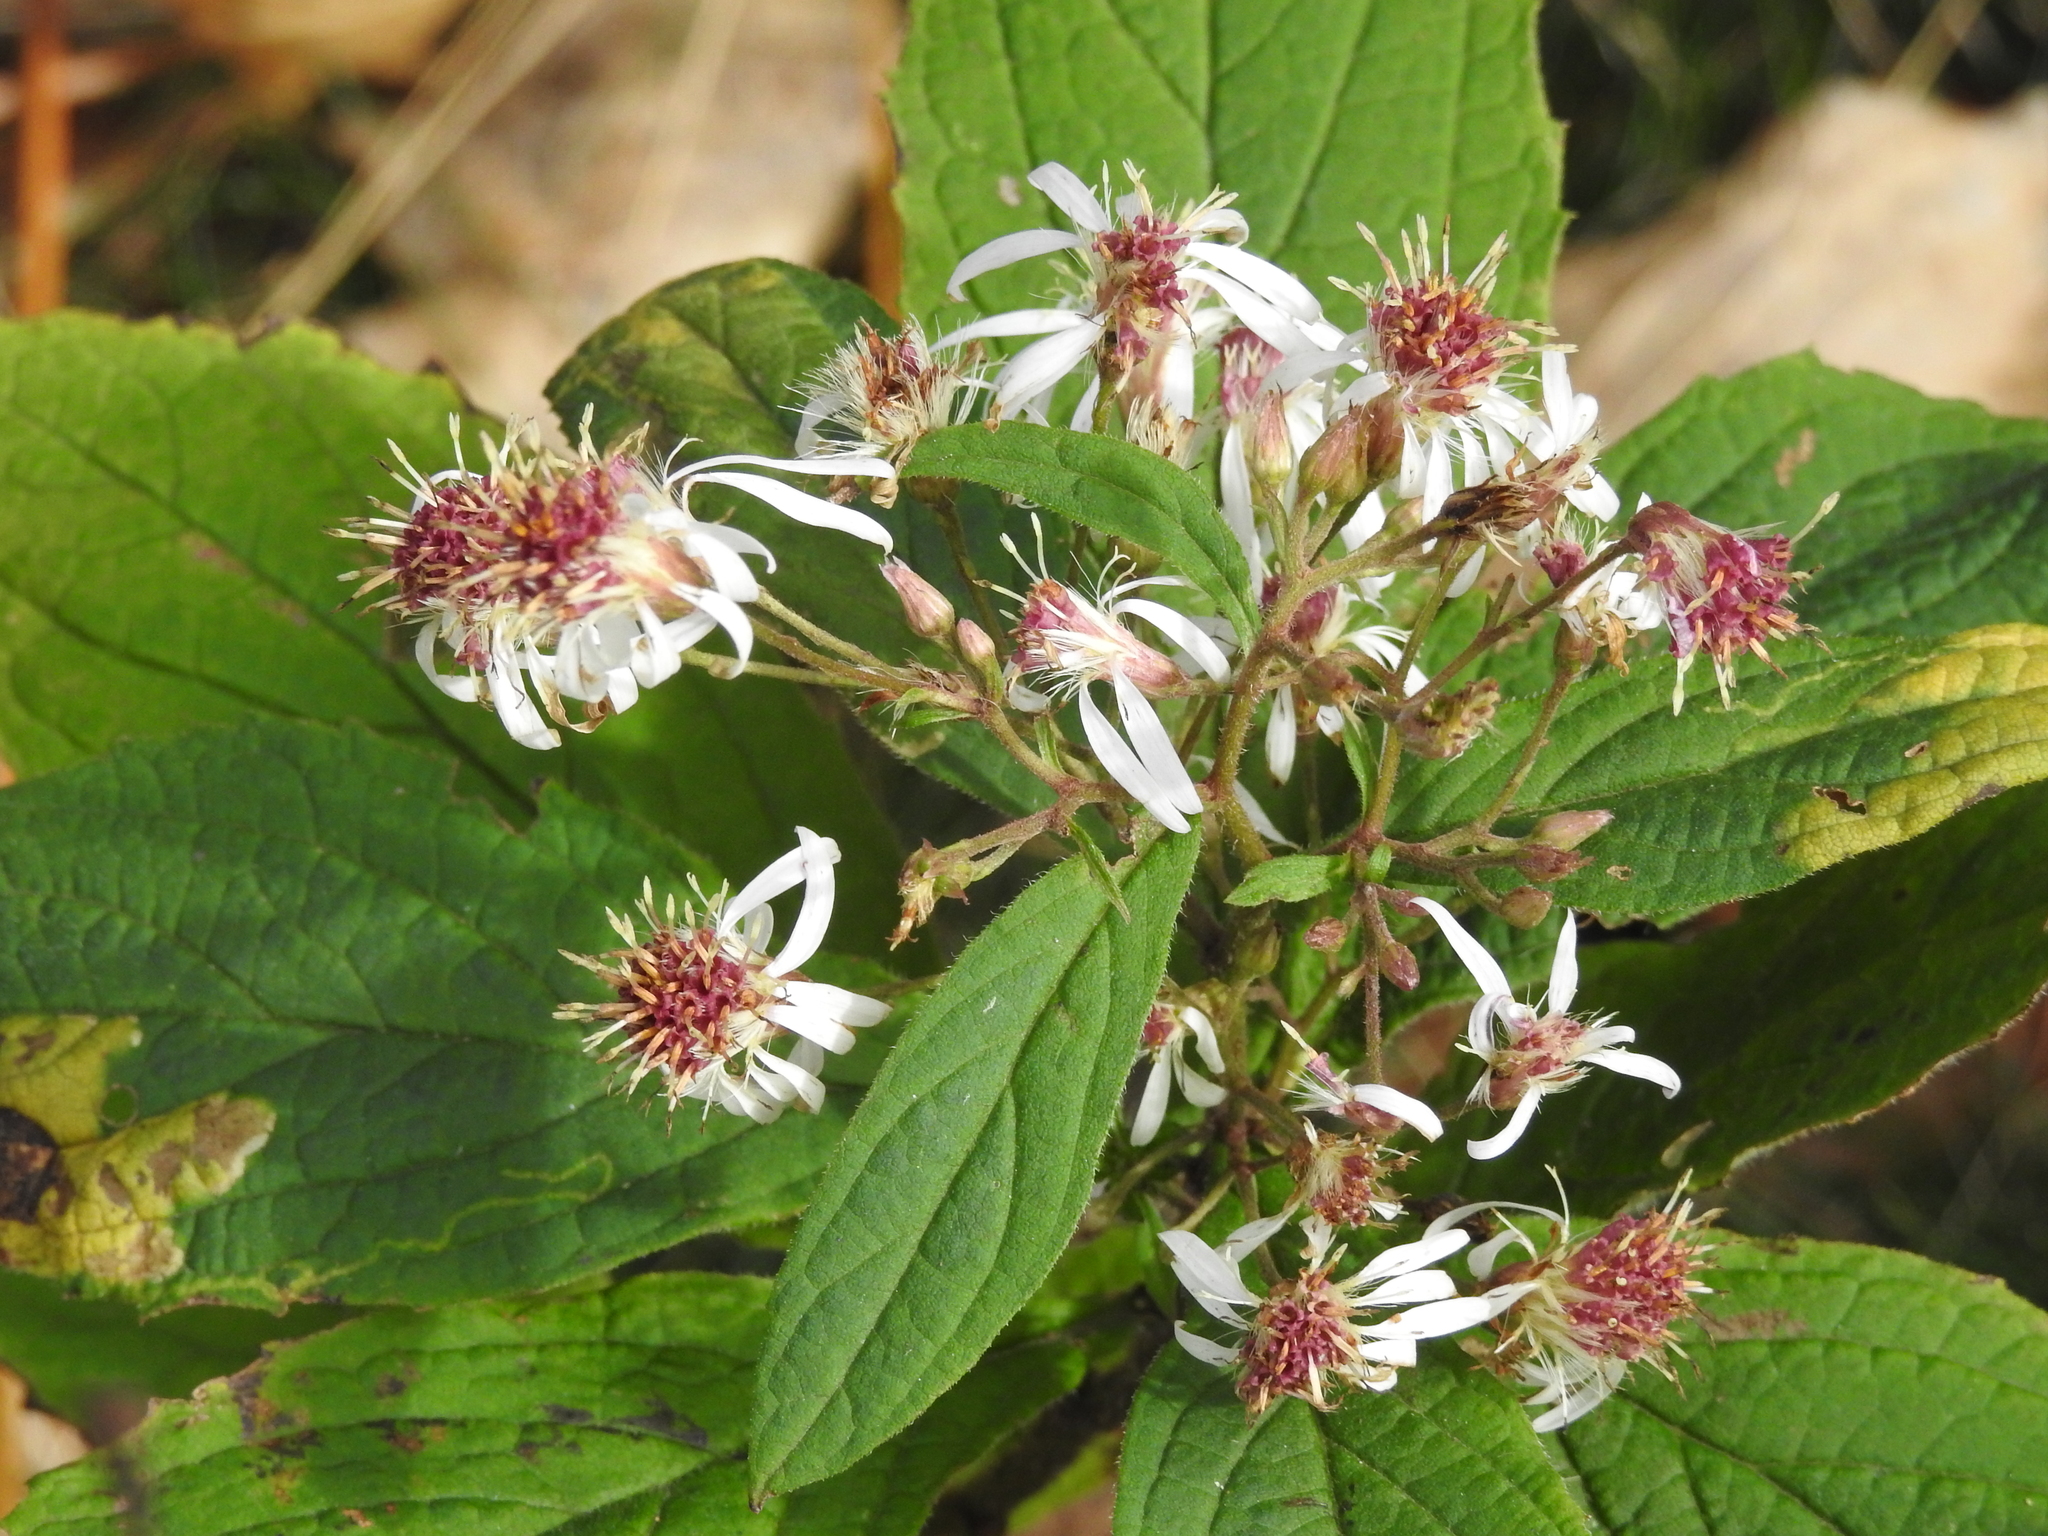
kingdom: Plantae
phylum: Tracheophyta
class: Magnoliopsida
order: Asterales
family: Asteraceae
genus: Oclemena
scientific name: Oclemena acuminata
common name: Mountain aster
